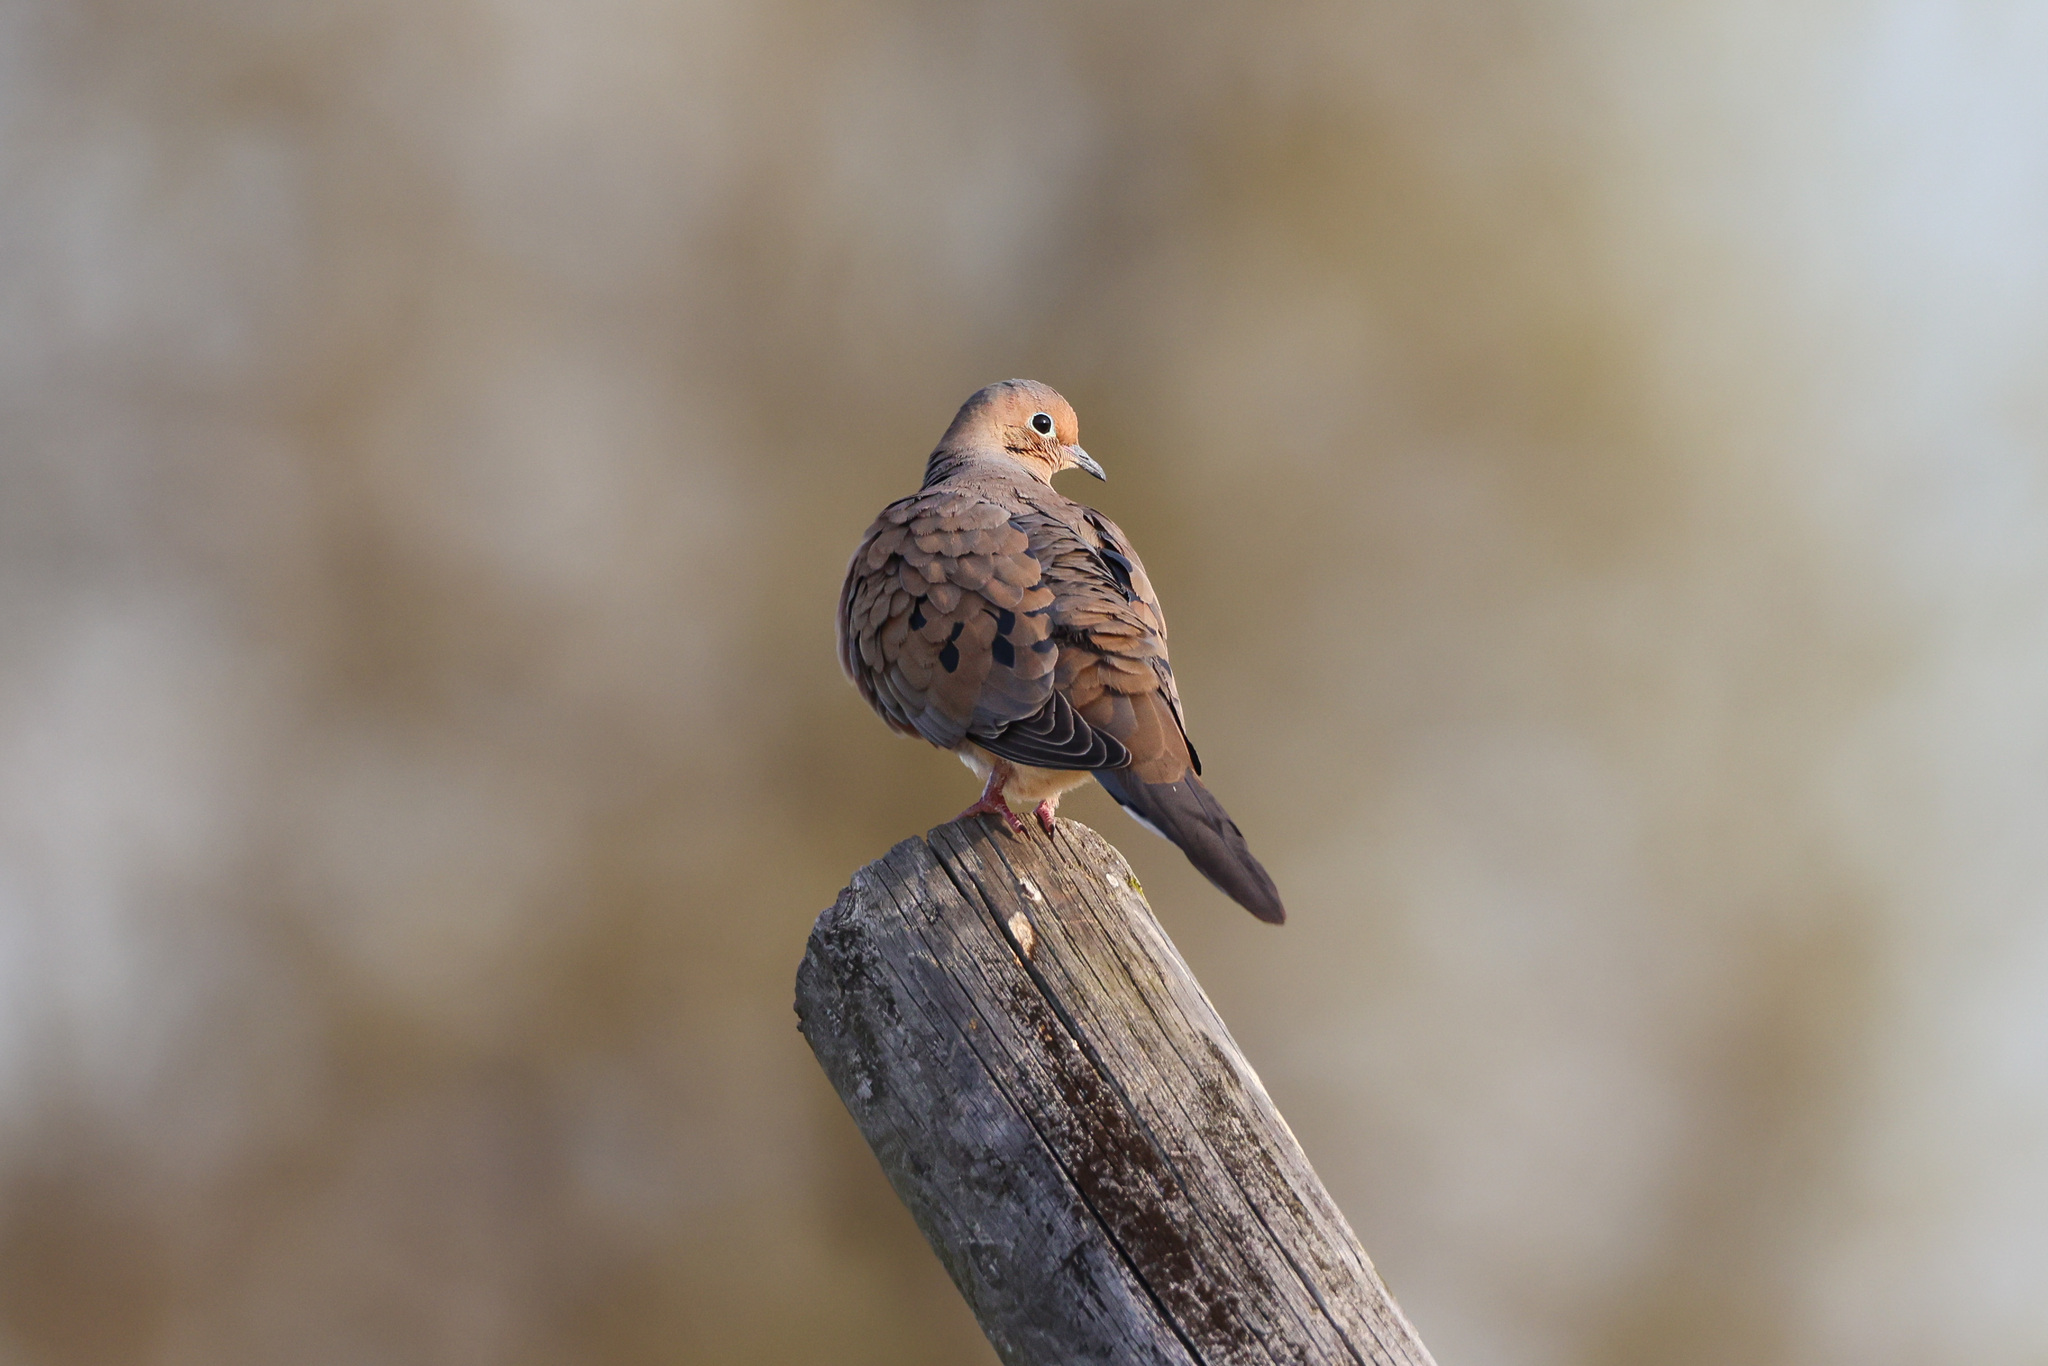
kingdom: Animalia
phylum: Chordata
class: Aves
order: Columbiformes
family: Columbidae
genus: Zenaida
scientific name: Zenaida macroura
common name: Mourning dove
